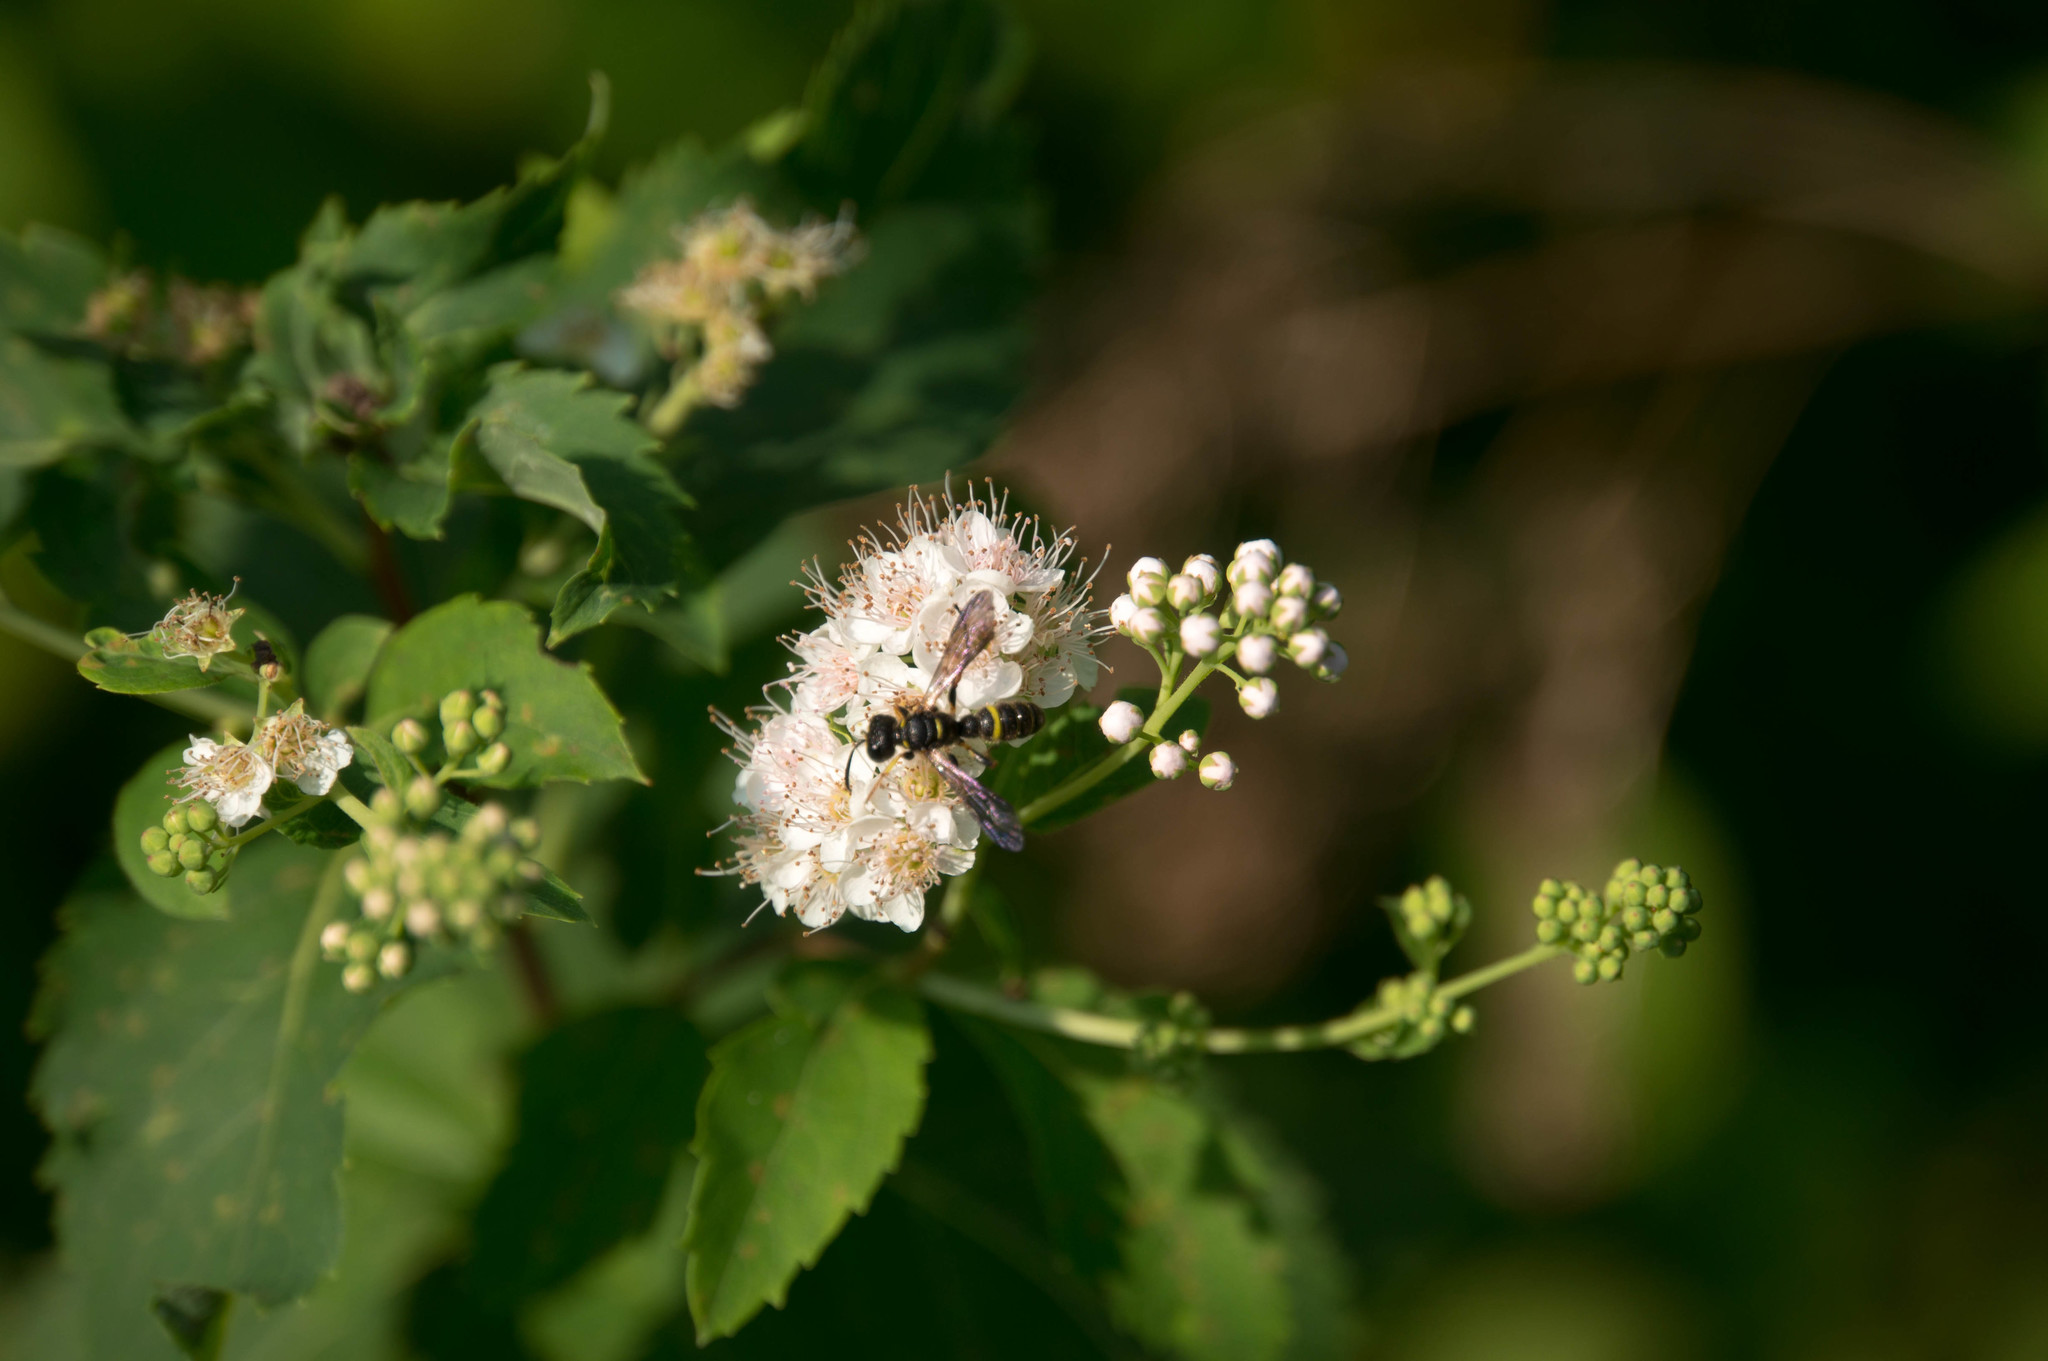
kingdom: Animalia
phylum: Arthropoda
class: Insecta
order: Hymenoptera
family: Crabronidae
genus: Cerceris
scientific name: Cerceris fumipennis
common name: Smokey-winged beetle bandit wasp
